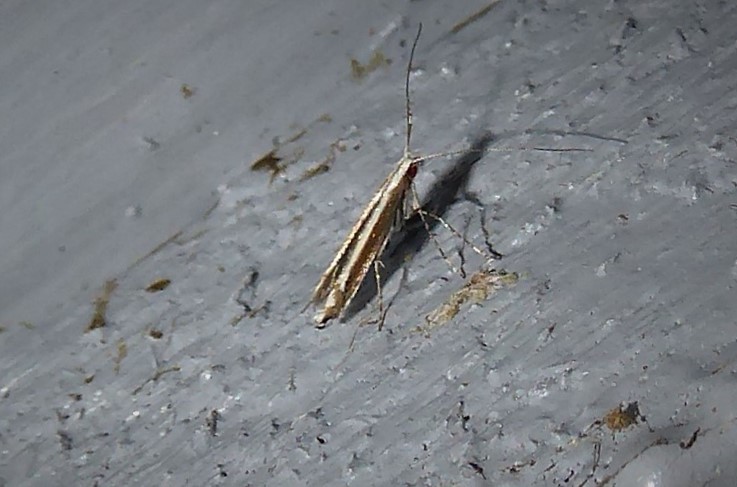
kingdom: Animalia
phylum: Arthropoda
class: Insecta
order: Lepidoptera
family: Gracillariidae
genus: Acrocercops
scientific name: Acrocercops laciniella
